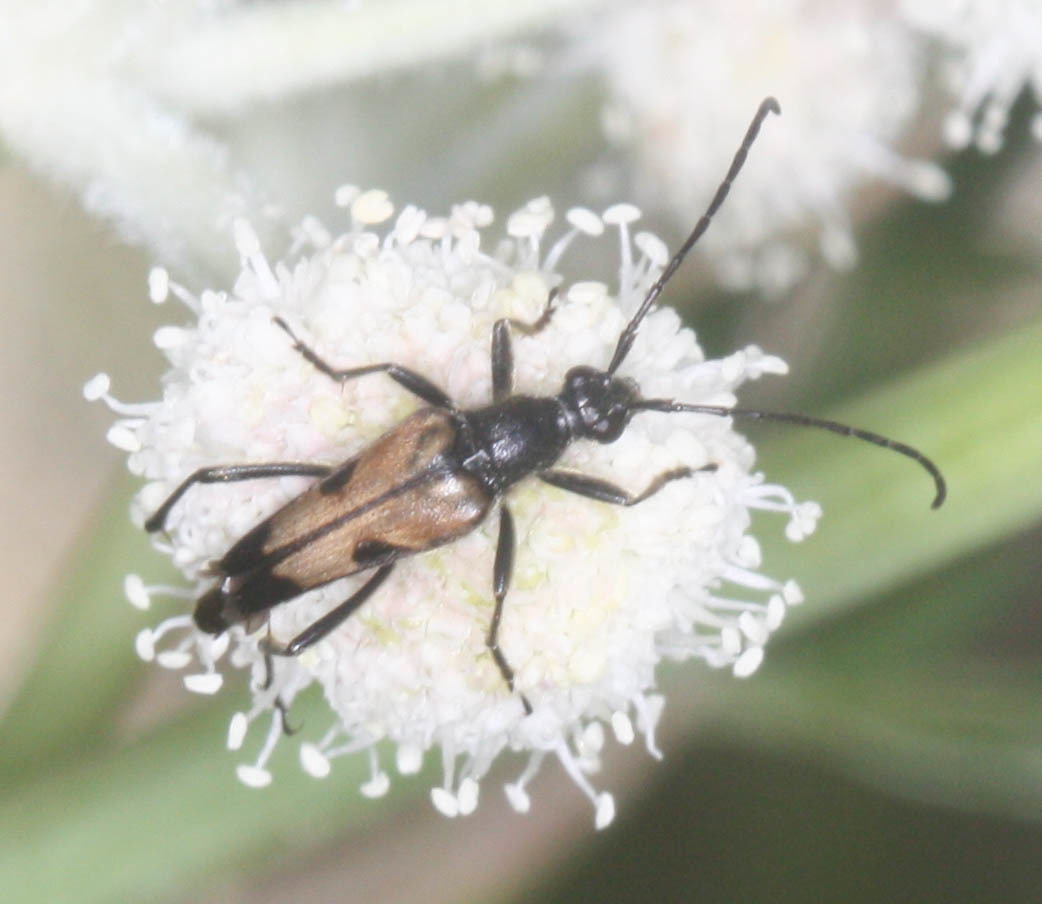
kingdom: Animalia
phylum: Arthropoda
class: Insecta
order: Coleoptera
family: Cerambycidae
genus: Etorofus
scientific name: Etorofus
